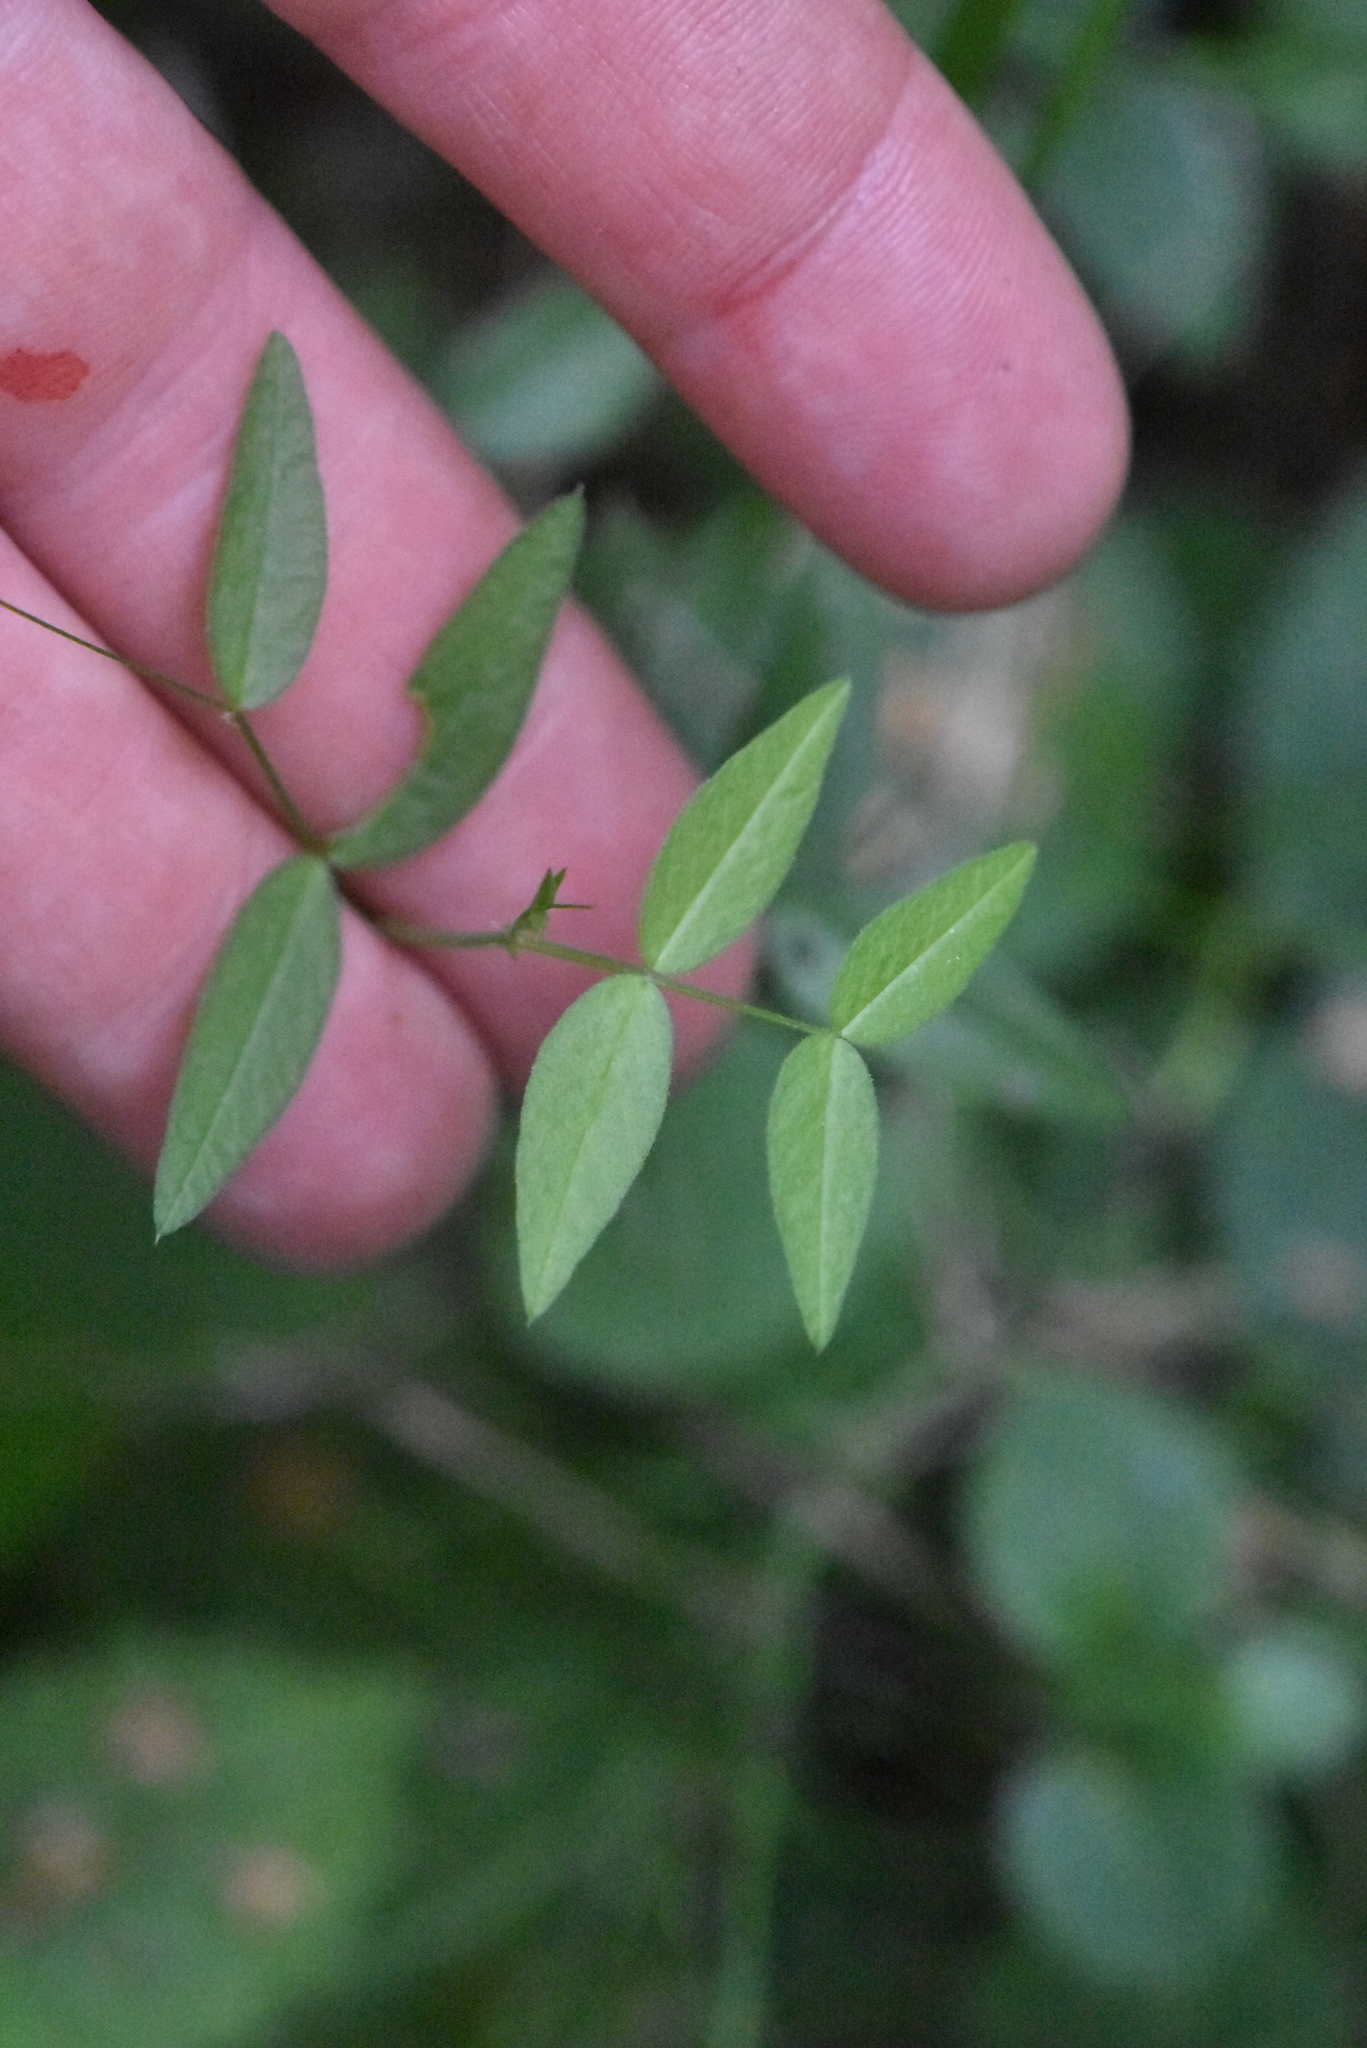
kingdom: Plantae
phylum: Tracheophyta
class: Magnoliopsida
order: Fabales
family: Fabaceae
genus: Vicia
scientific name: Vicia sepium
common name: Bush vetch
